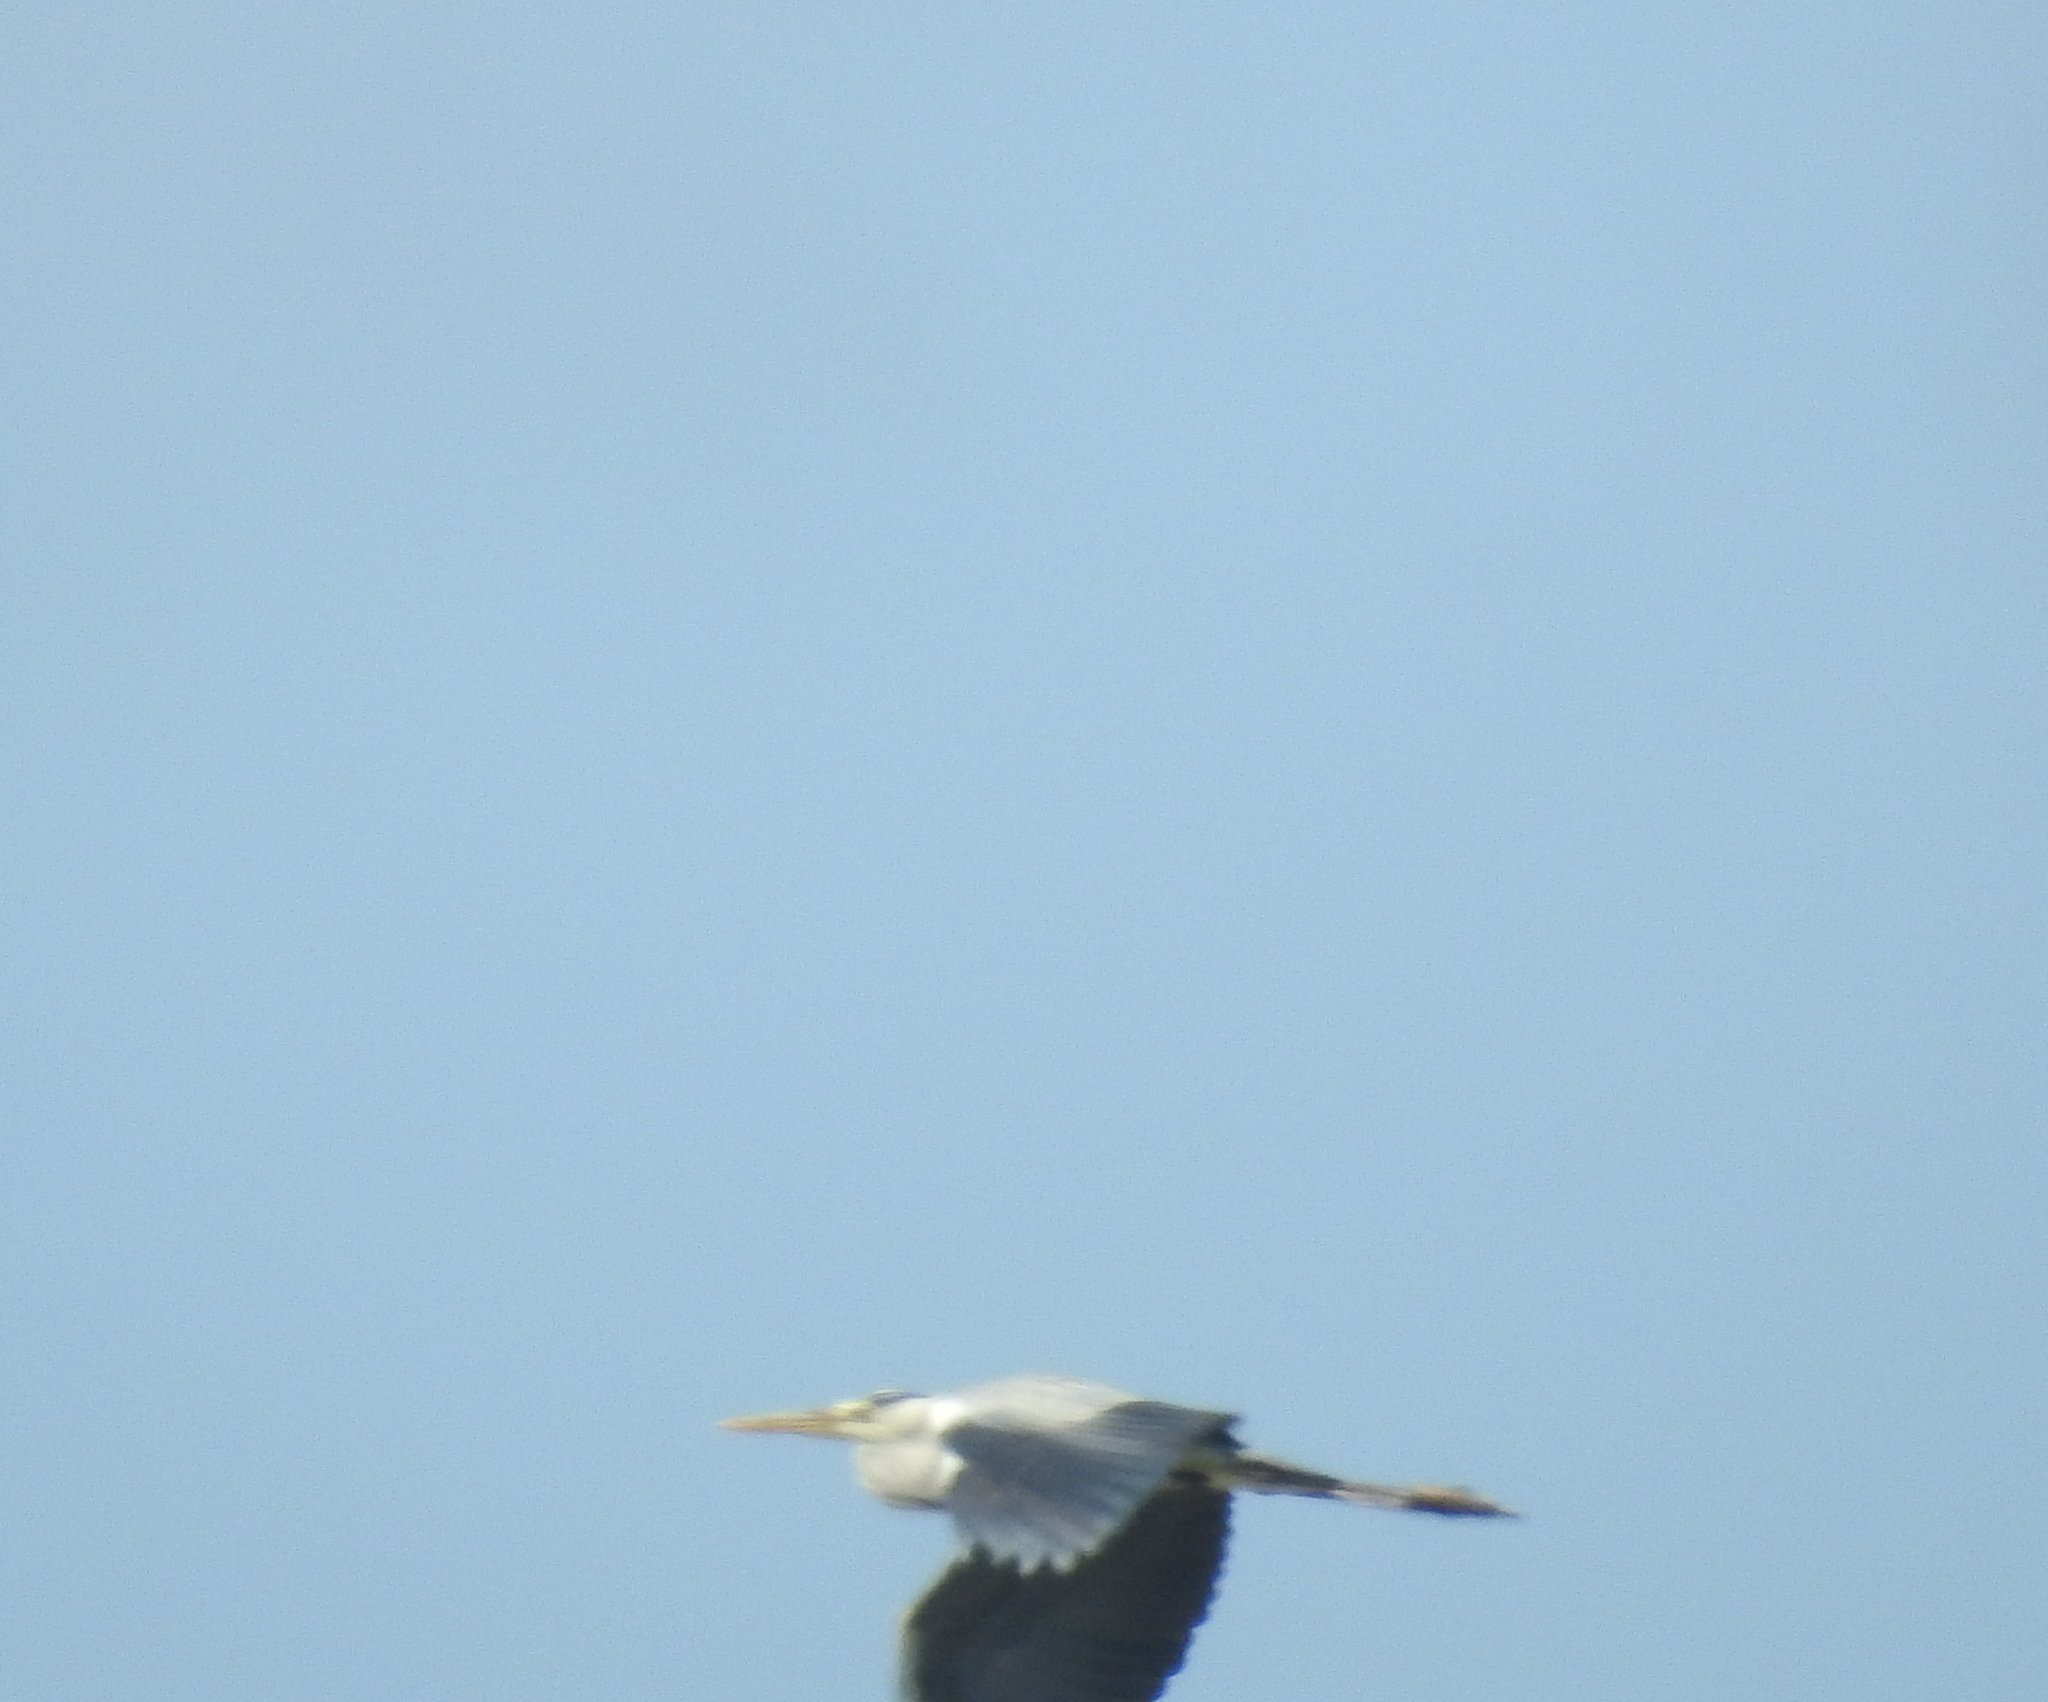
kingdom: Animalia
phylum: Chordata
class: Aves
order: Pelecaniformes
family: Ardeidae
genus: Ardea
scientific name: Ardea cinerea
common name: Grey heron
